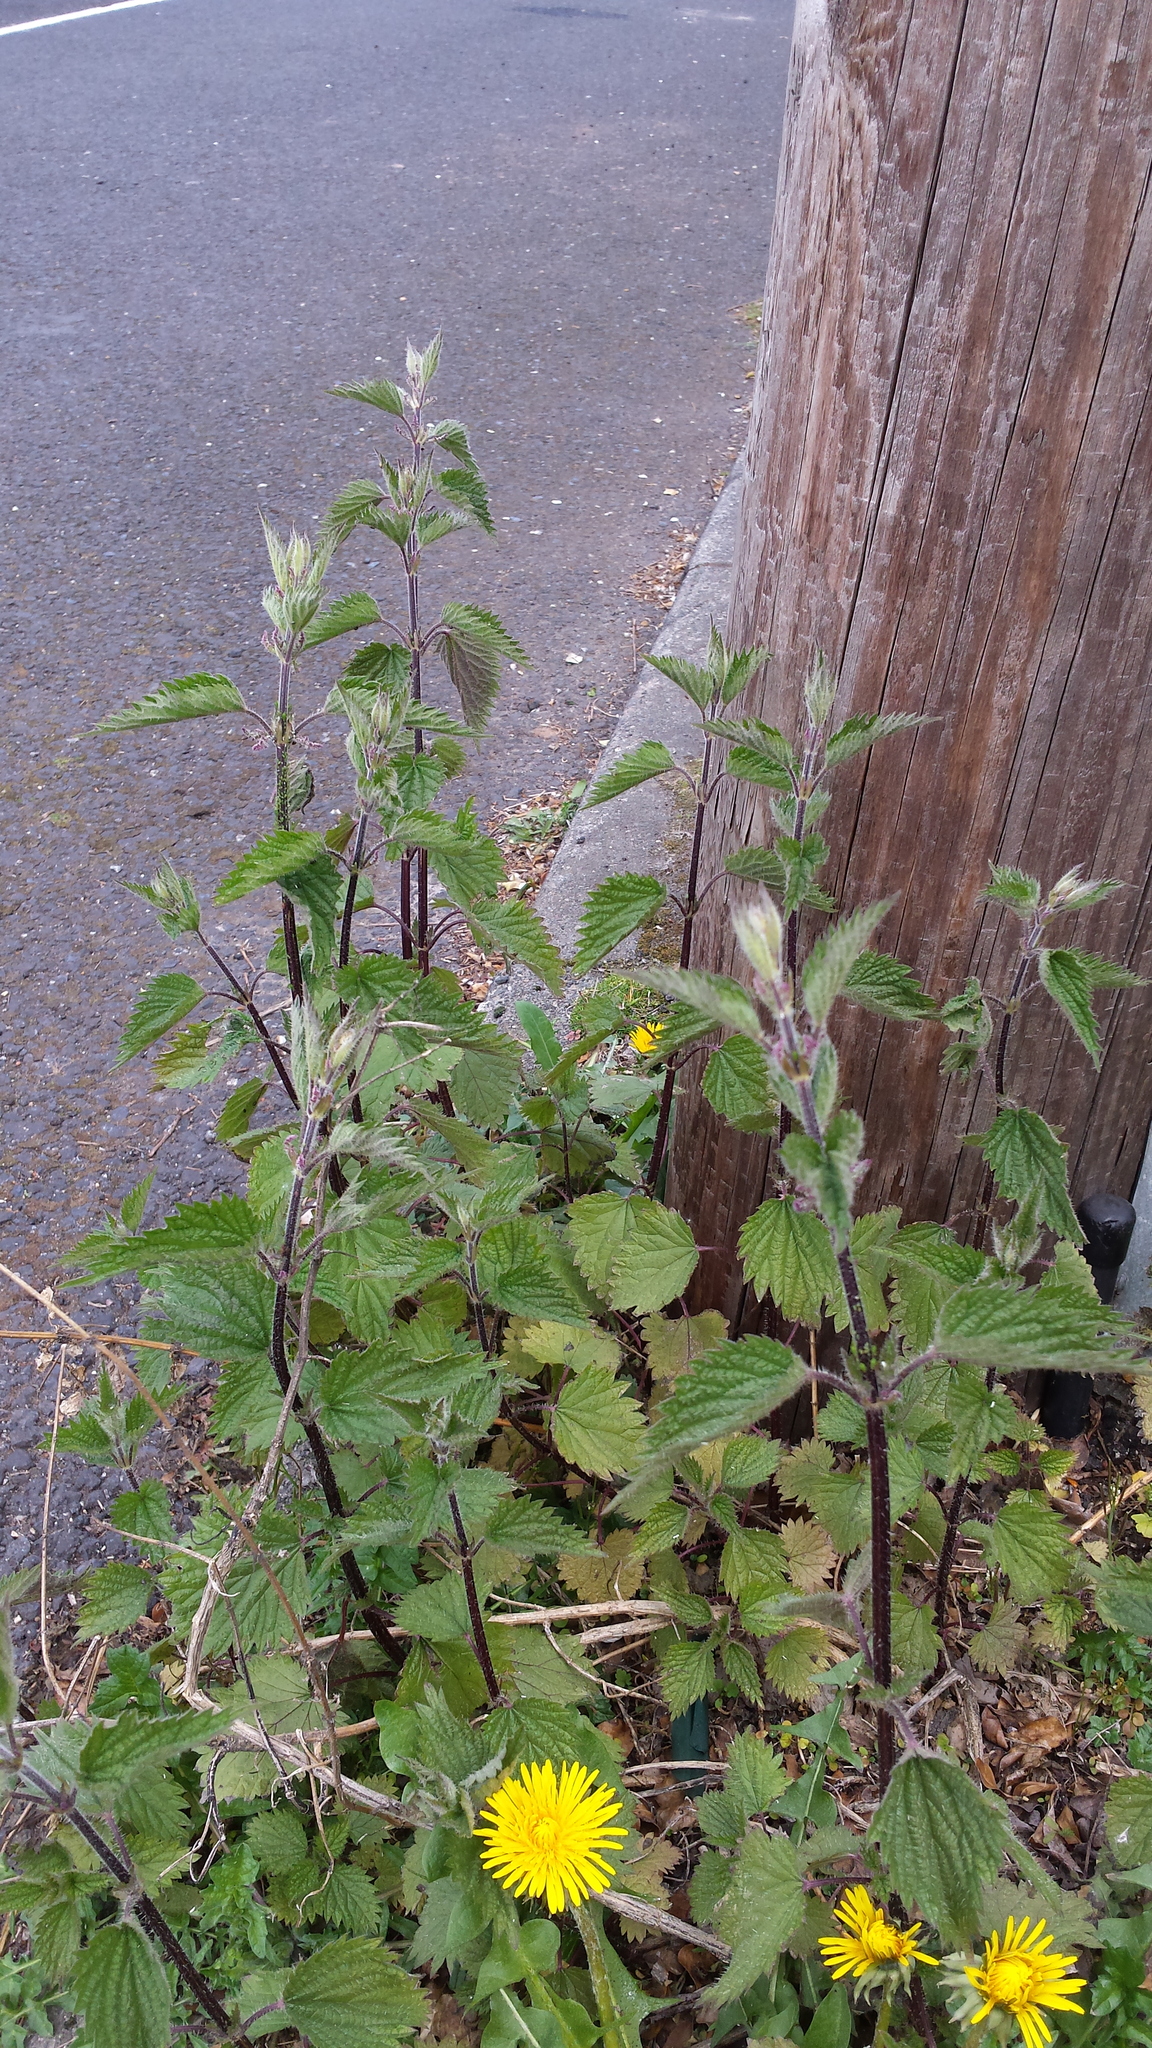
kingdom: Plantae
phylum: Tracheophyta
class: Magnoliopsida
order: Rosales
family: Urticaceae
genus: Urtica
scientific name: Urtica dioica
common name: Common nettle
